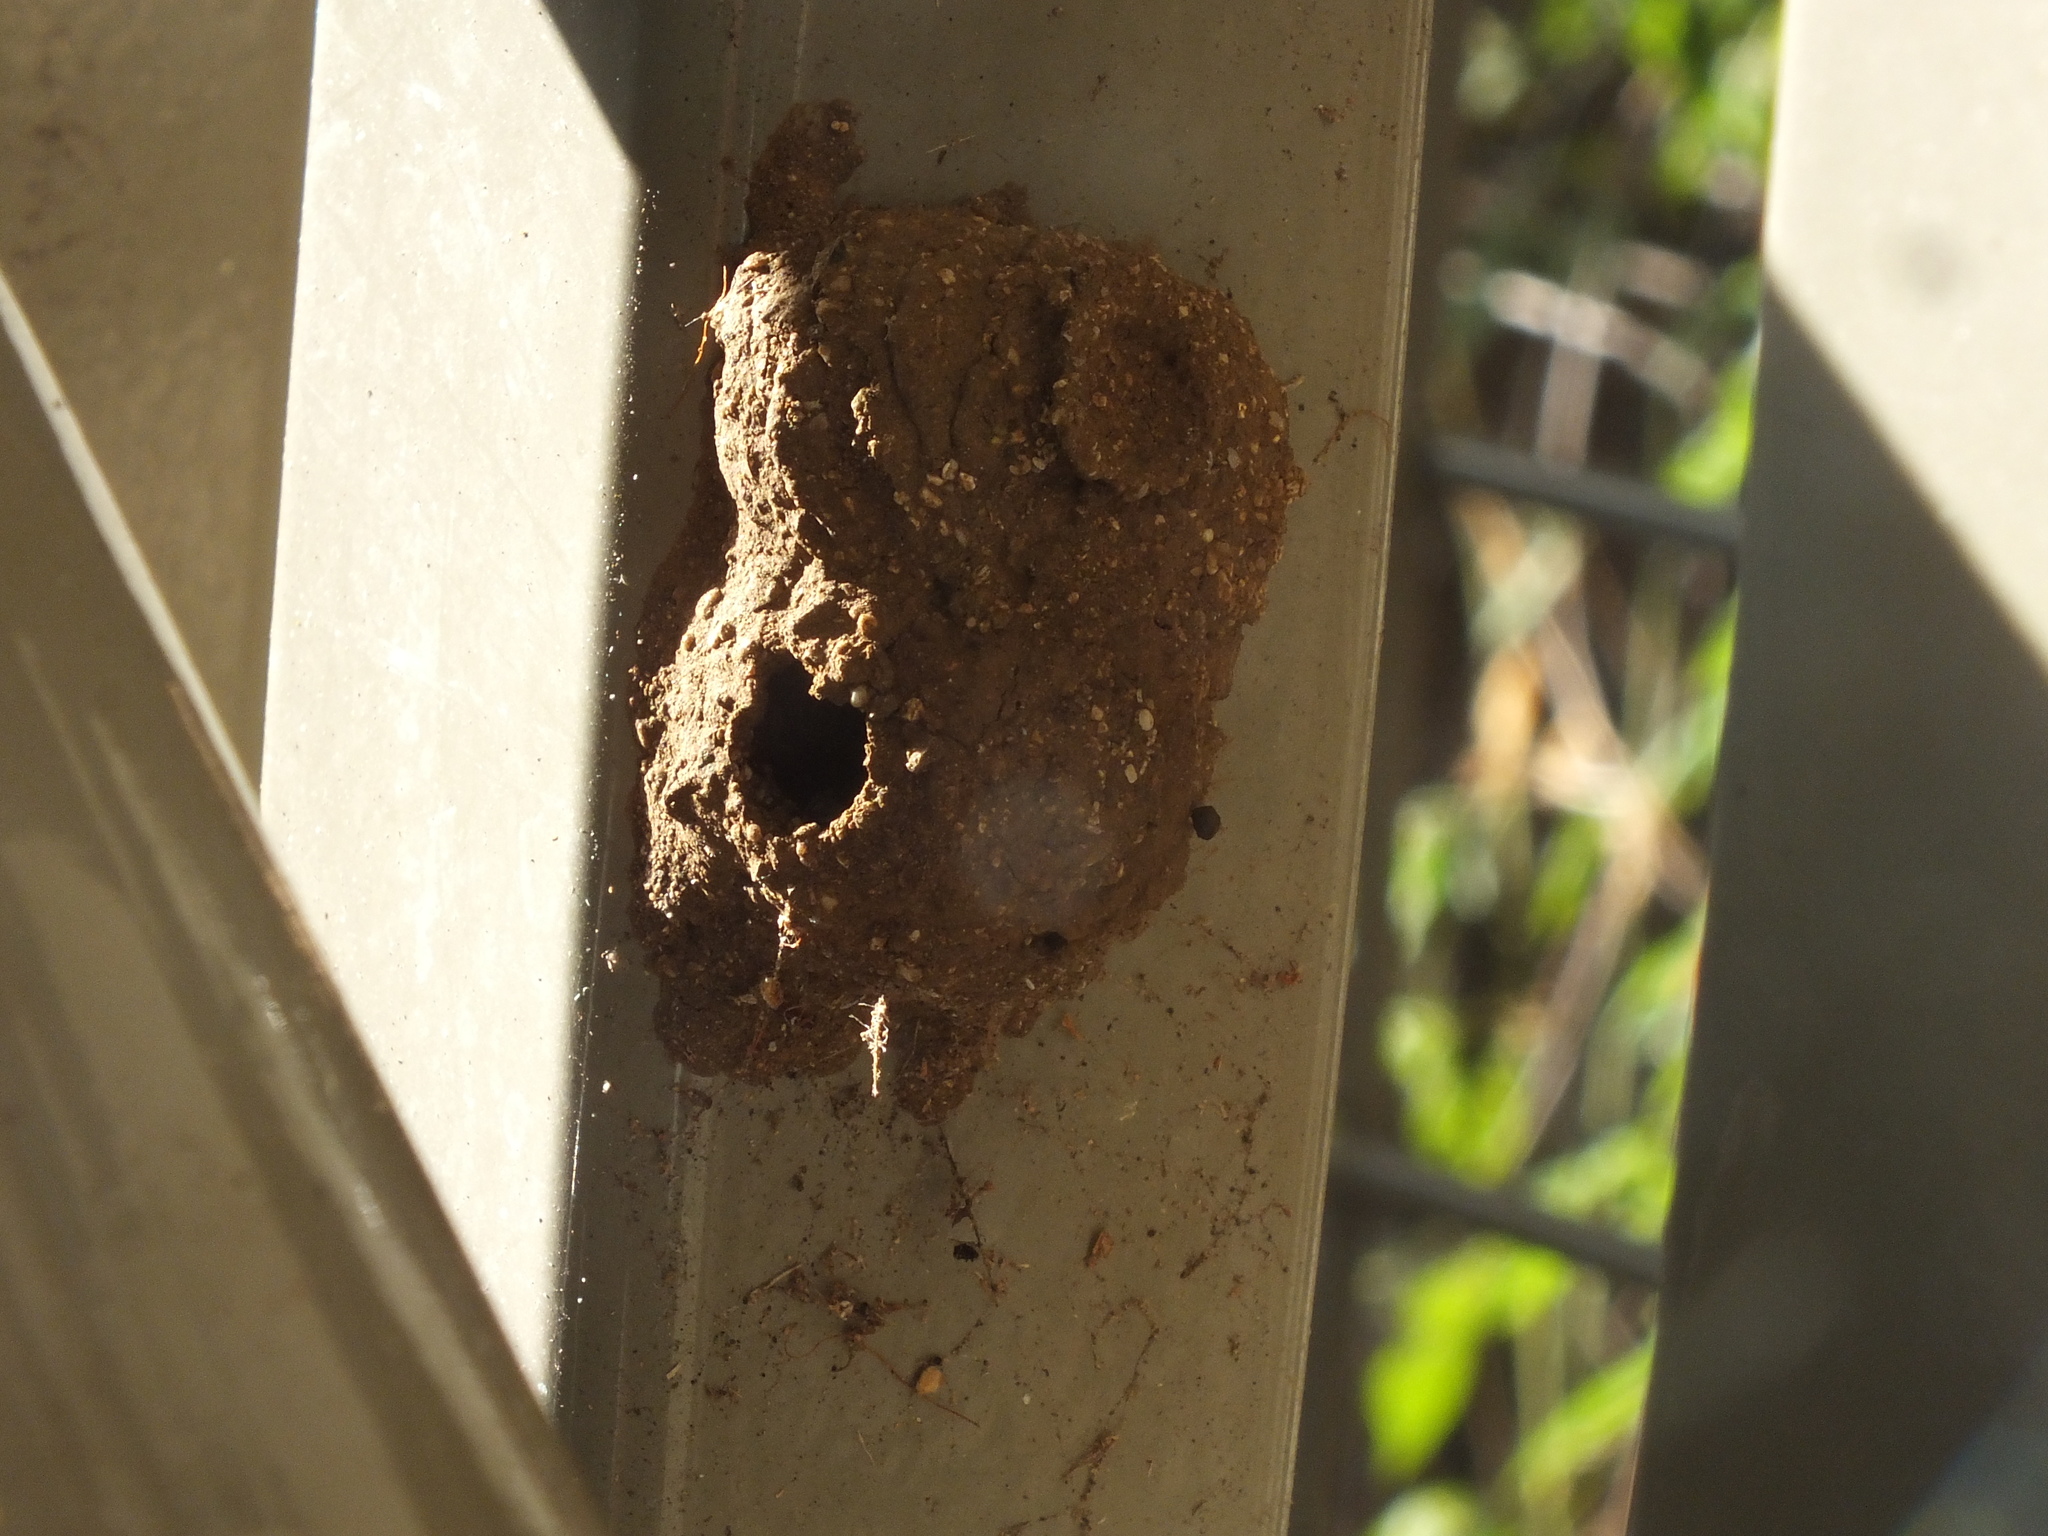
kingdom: Animalia
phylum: Arthropoda
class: Insecta
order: Hymenoptera
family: Eumenidae
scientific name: Eumenidae
